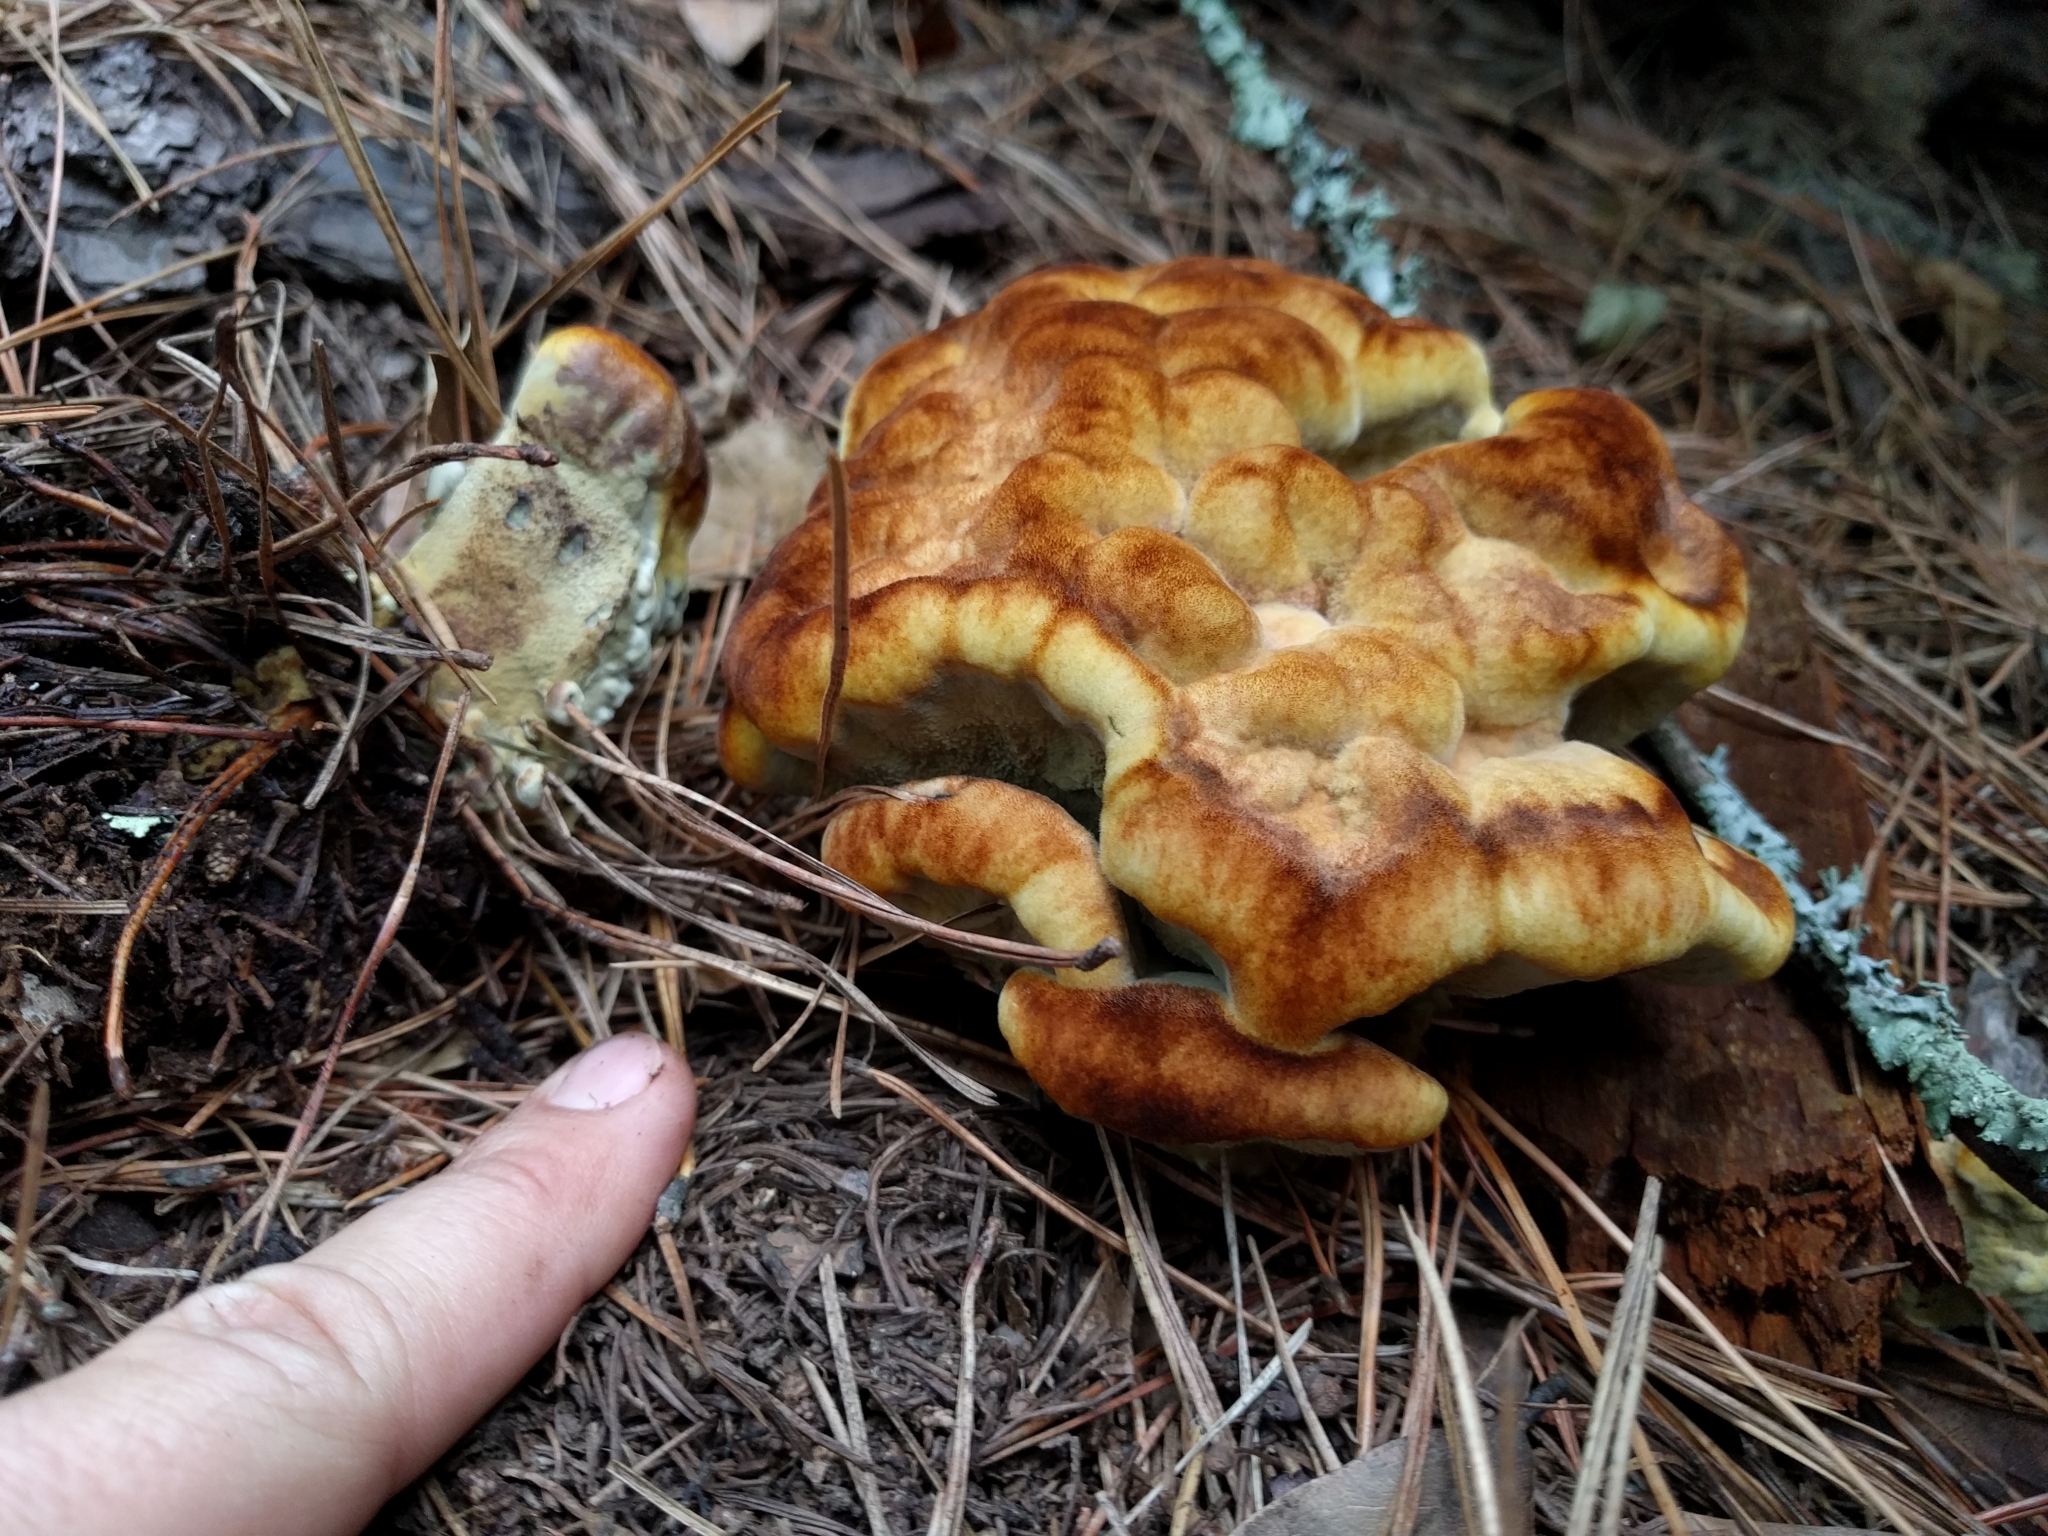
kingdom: Fungi
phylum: Basidiomycota
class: Agaricomycetes
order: Polyporales
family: Laetiporaceae
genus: Phaeolus
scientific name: Phaeolus schweinitzii
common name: Dyer's mazegill
